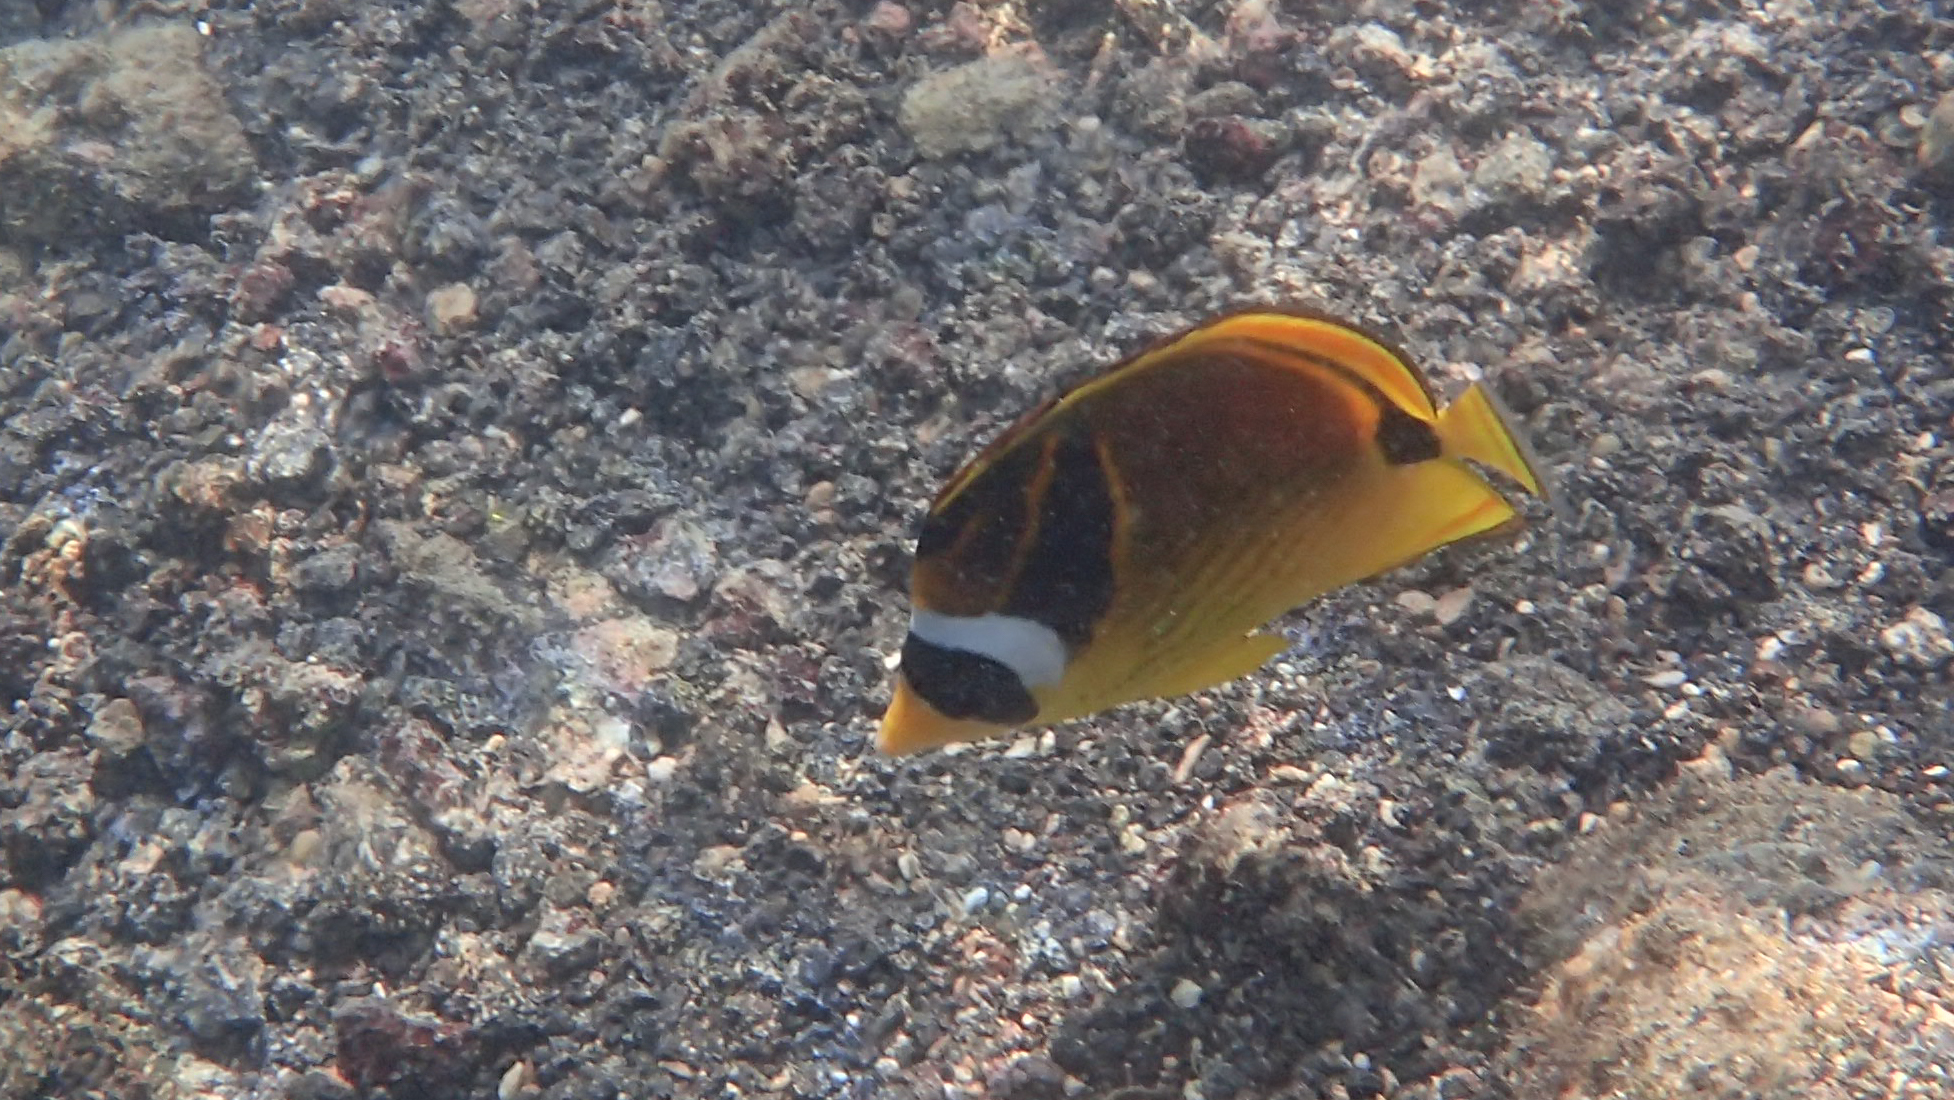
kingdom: Animalia
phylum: Chordata
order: Perciformes
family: Chaetodontidae
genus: Chaetodon
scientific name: Chaetodon lunula
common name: Raccoon butterflyfish
